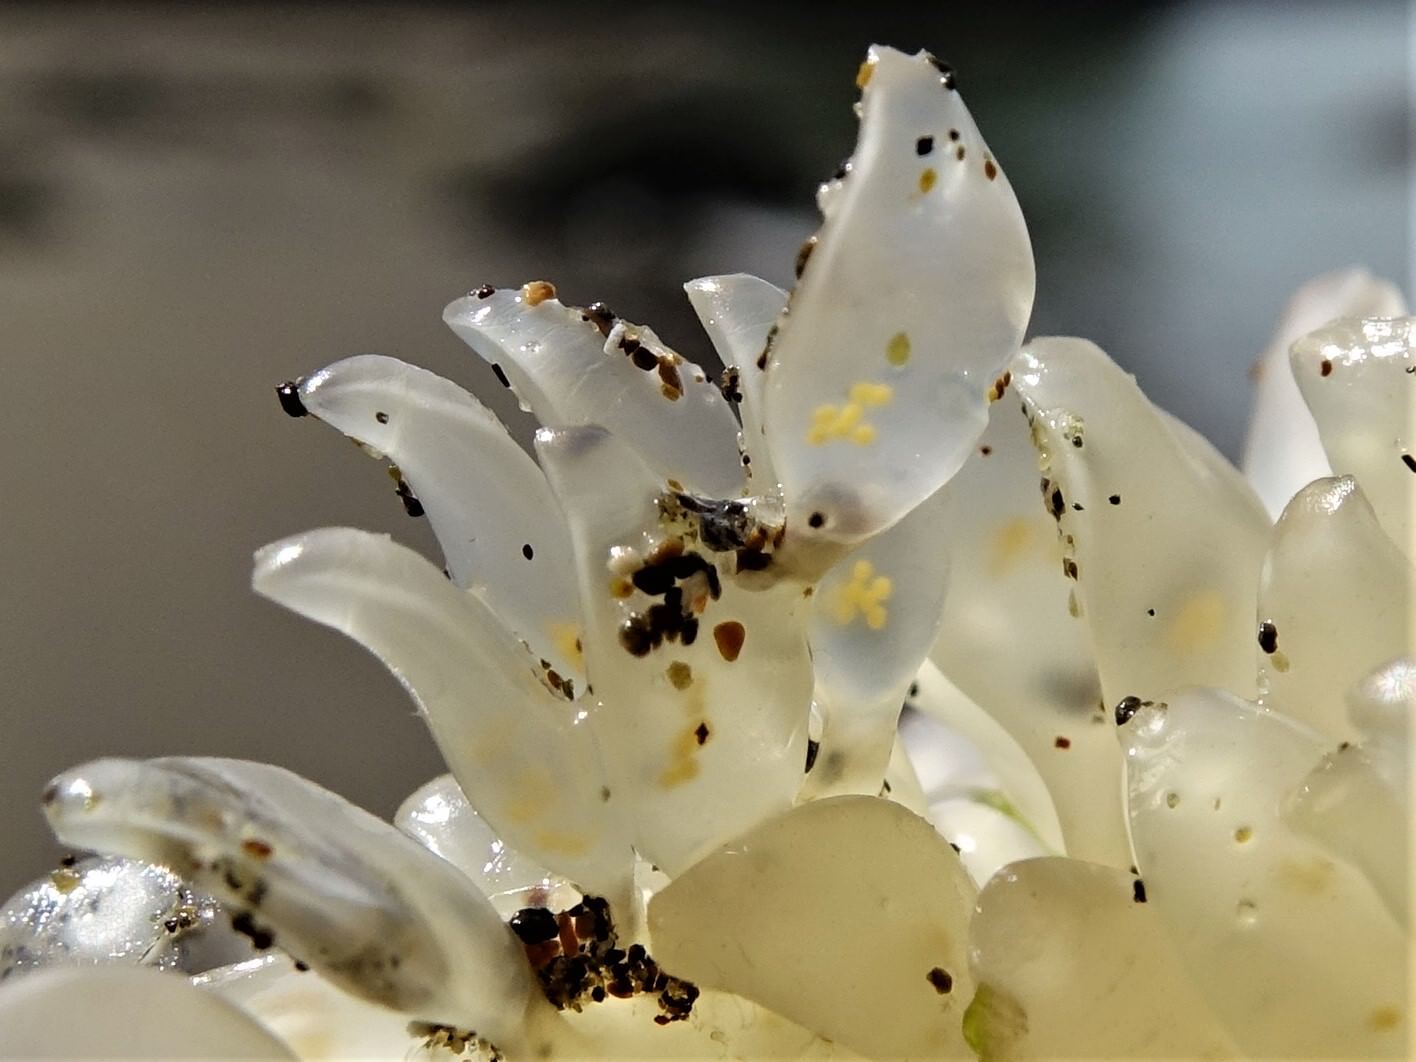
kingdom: Animalia
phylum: Mollusca
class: Gastropoda
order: Neogastropoda
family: Cominellidae
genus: Cominella
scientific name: Cominella adspersa
